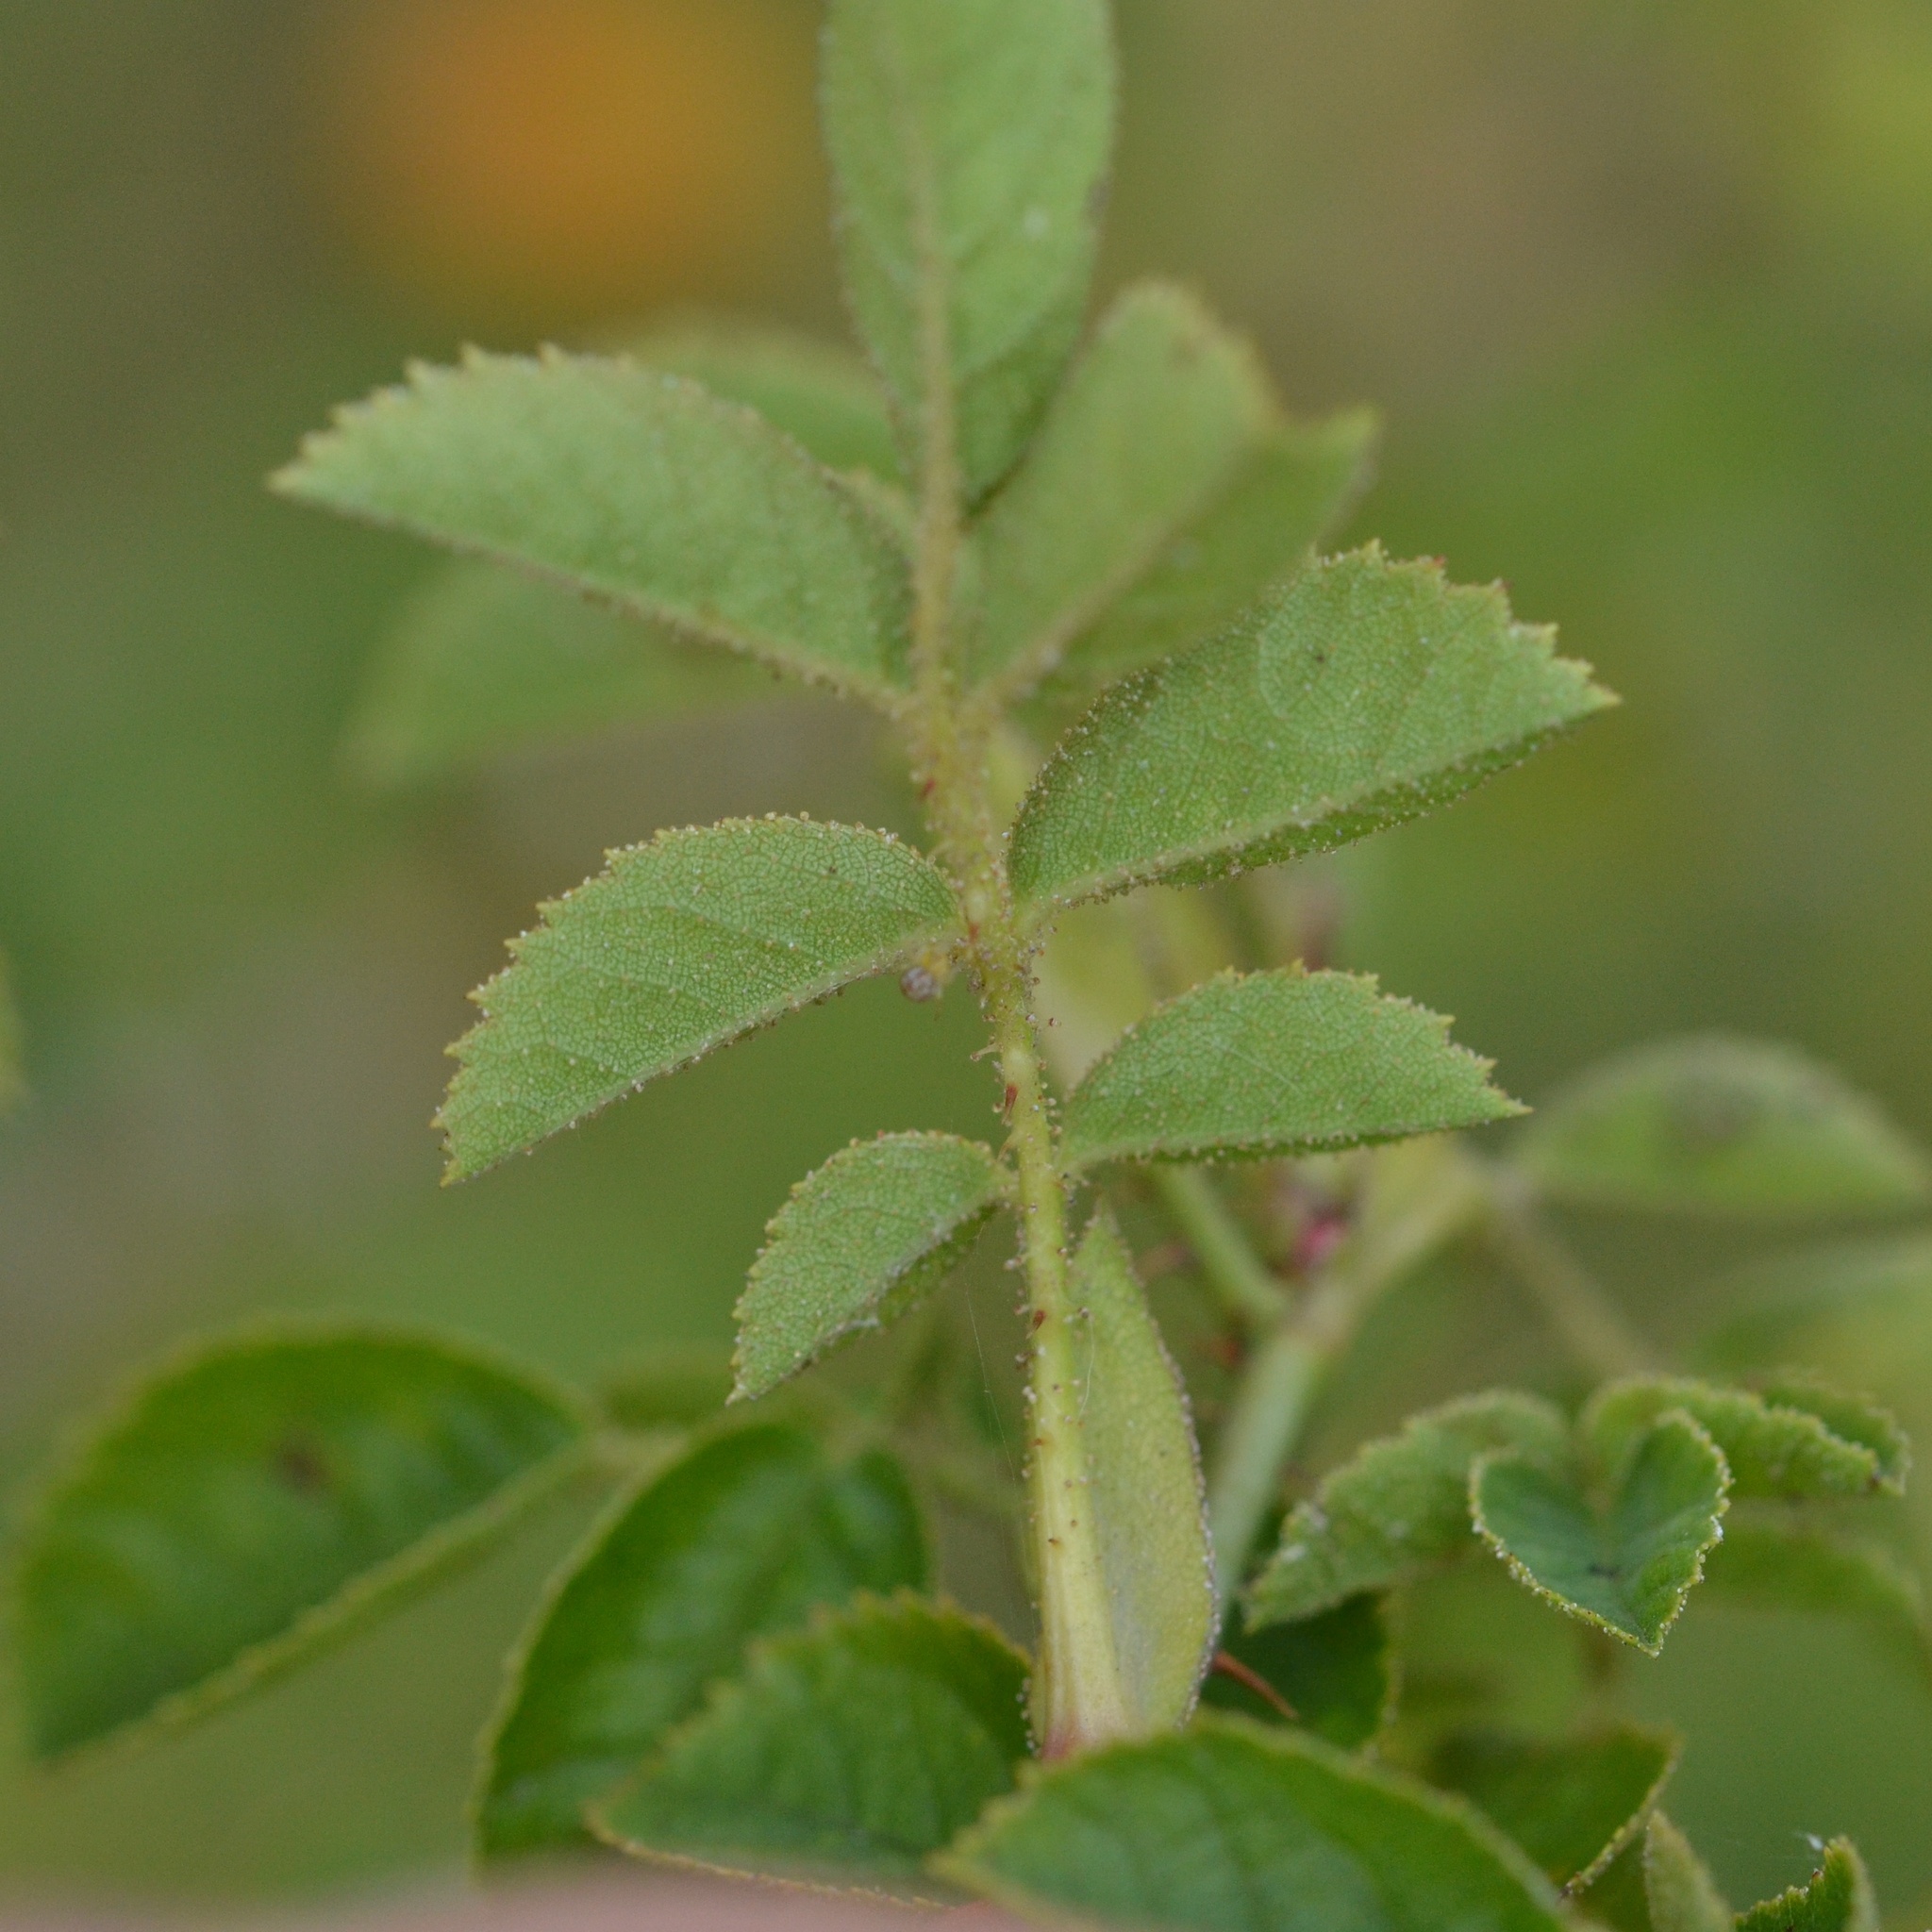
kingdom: Plantae
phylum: Tracheophyta
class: Magnoliopsida
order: Rosales
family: Rosaceae
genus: Rosa
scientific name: Rosa rubiginosa
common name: Sweet-briar
